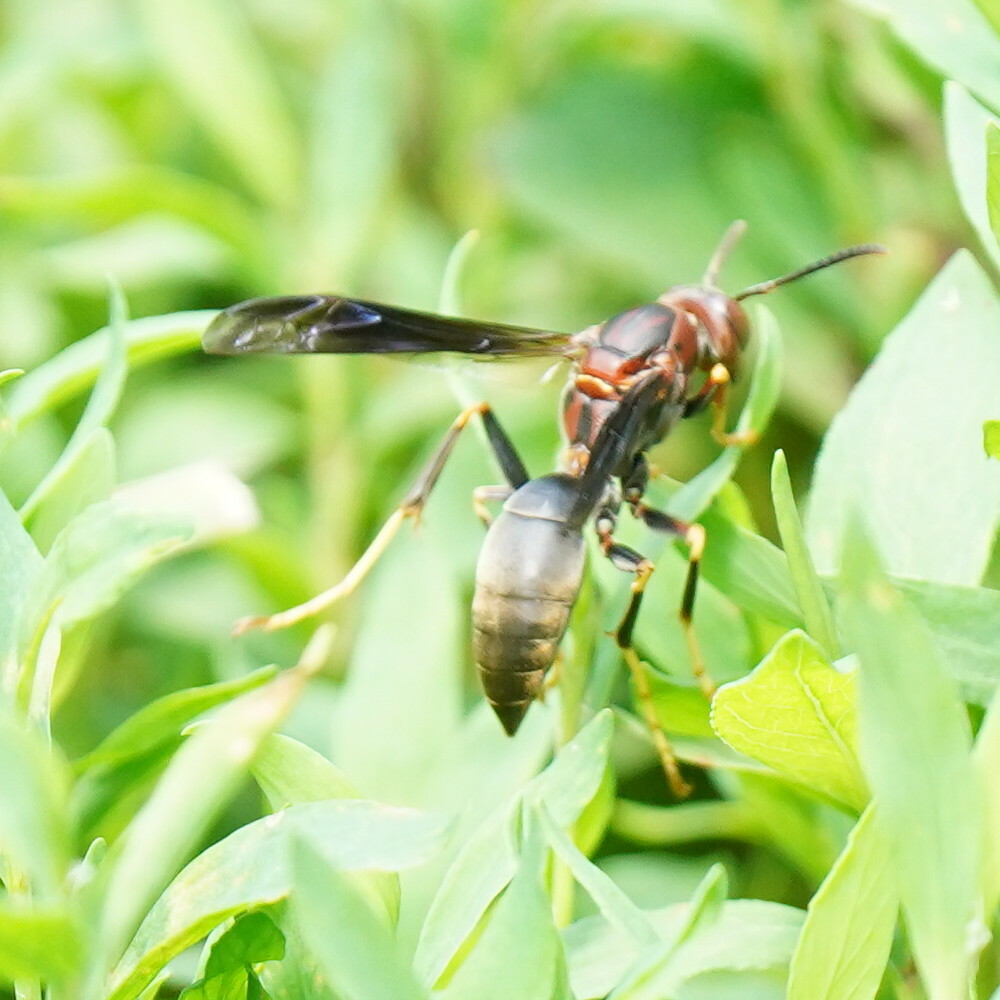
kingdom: Animalia
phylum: Arthropoda
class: Insecta
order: Hymenoptera
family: Eumenidae
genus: Polistes
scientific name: Polistes metricus
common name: Metric paper wasp
